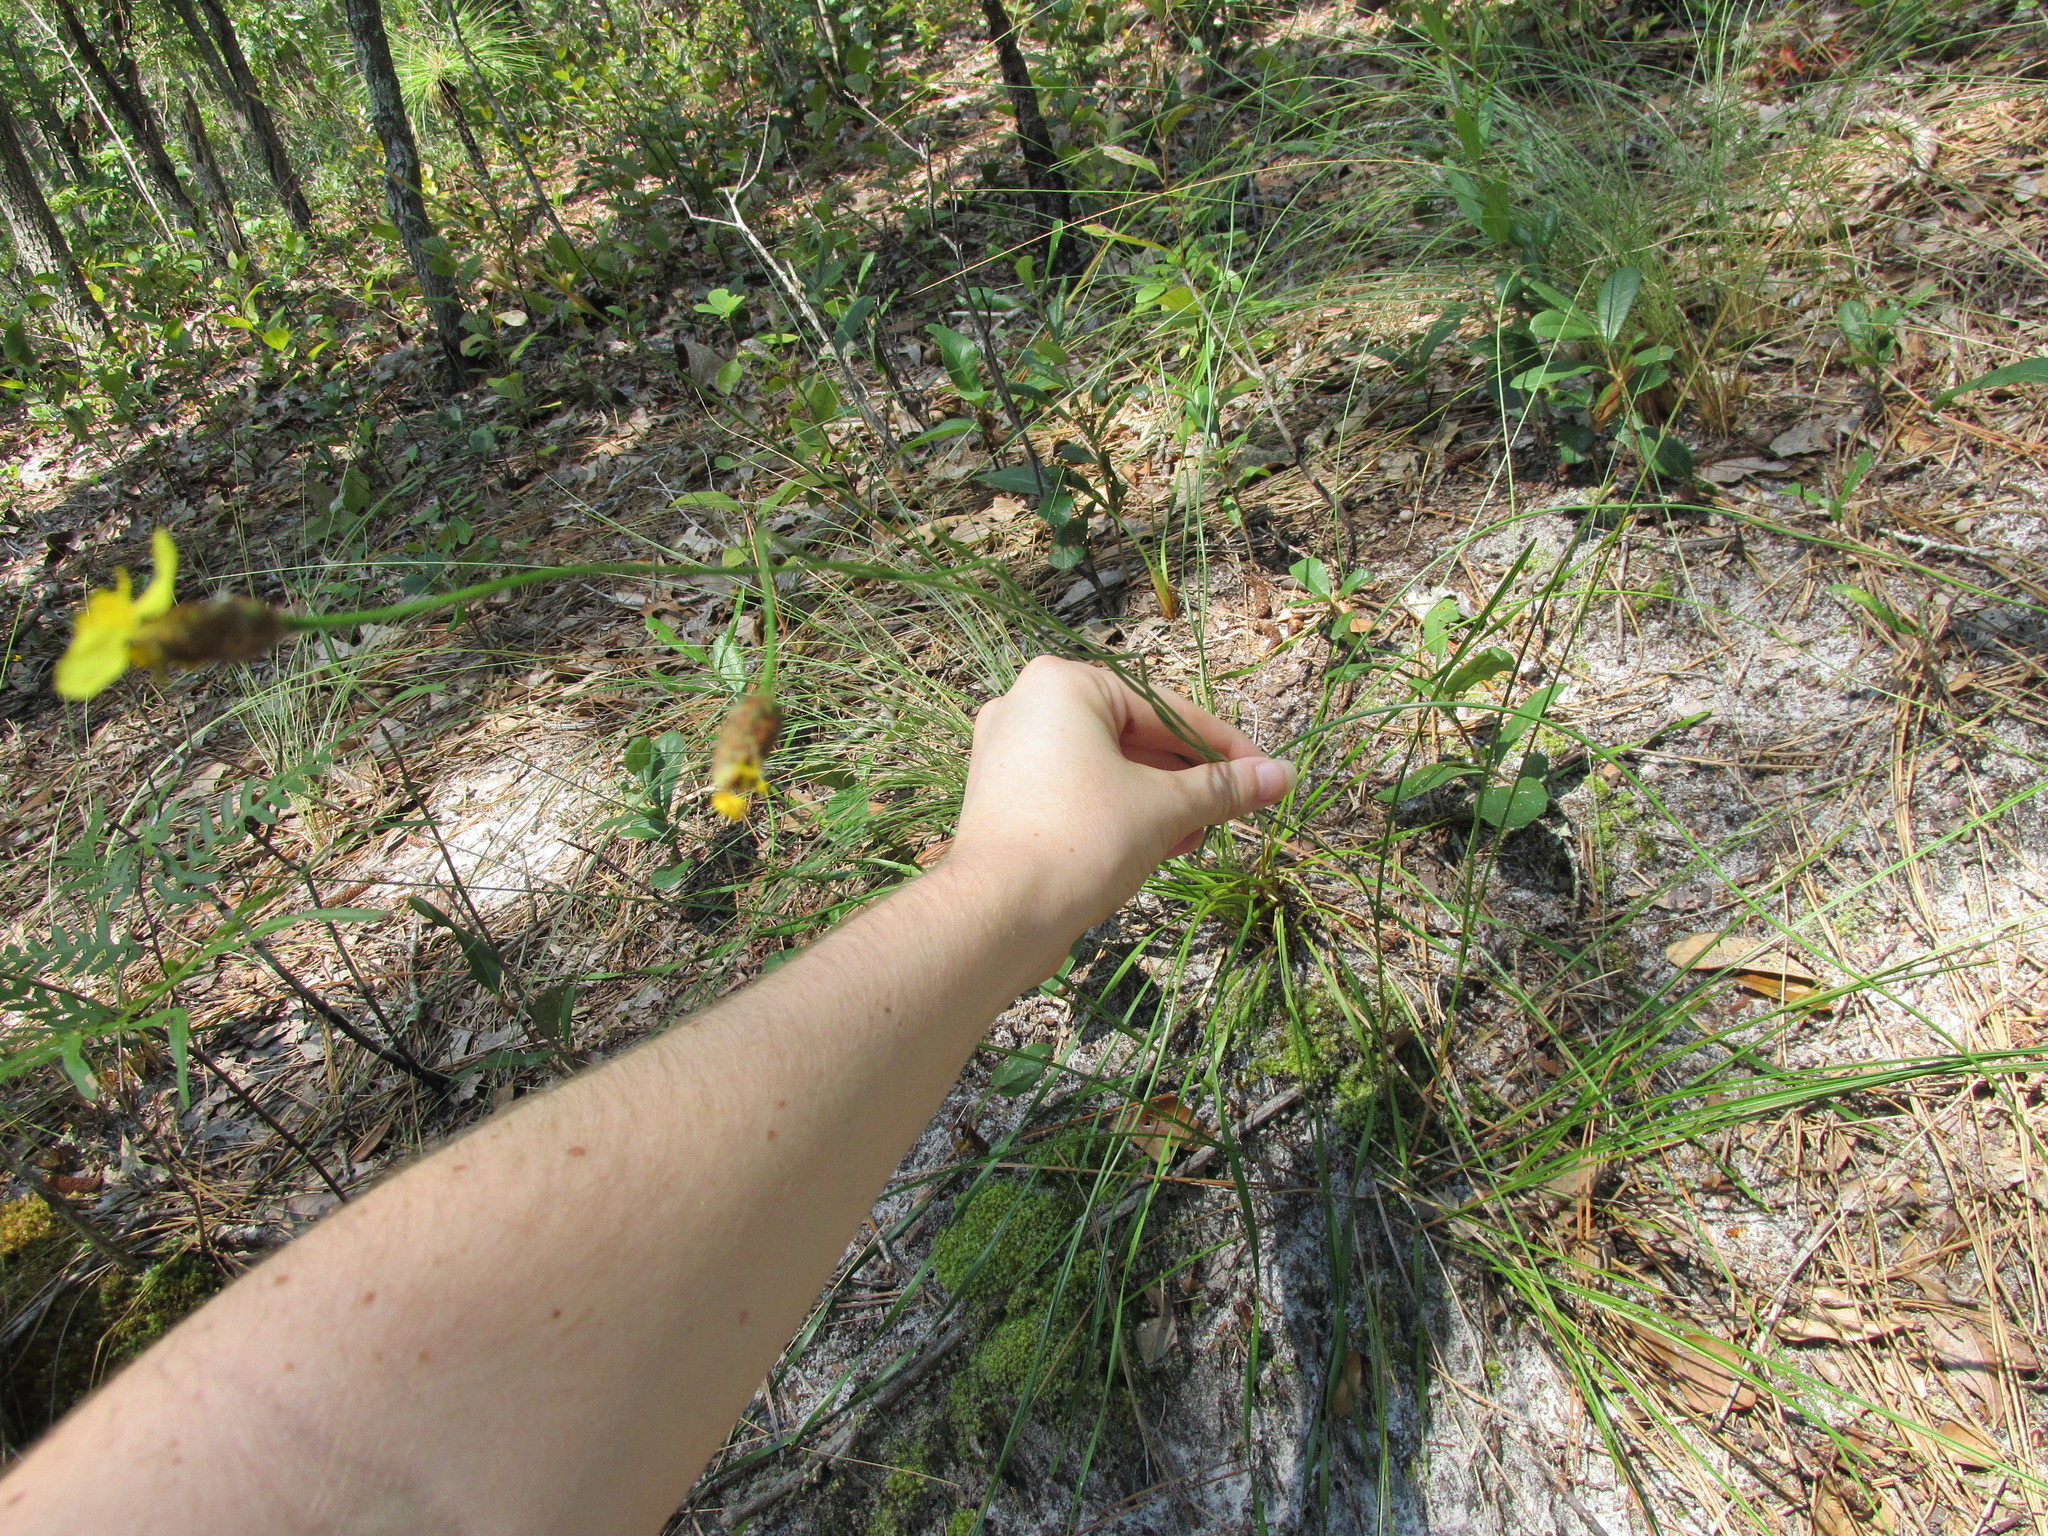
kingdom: Plantae
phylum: Tracheophyta
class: Liliopsida
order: Poales
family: Xyridaceae
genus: Xyris
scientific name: Xyris caroliniana
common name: Carolina yellow-eyed-grass
